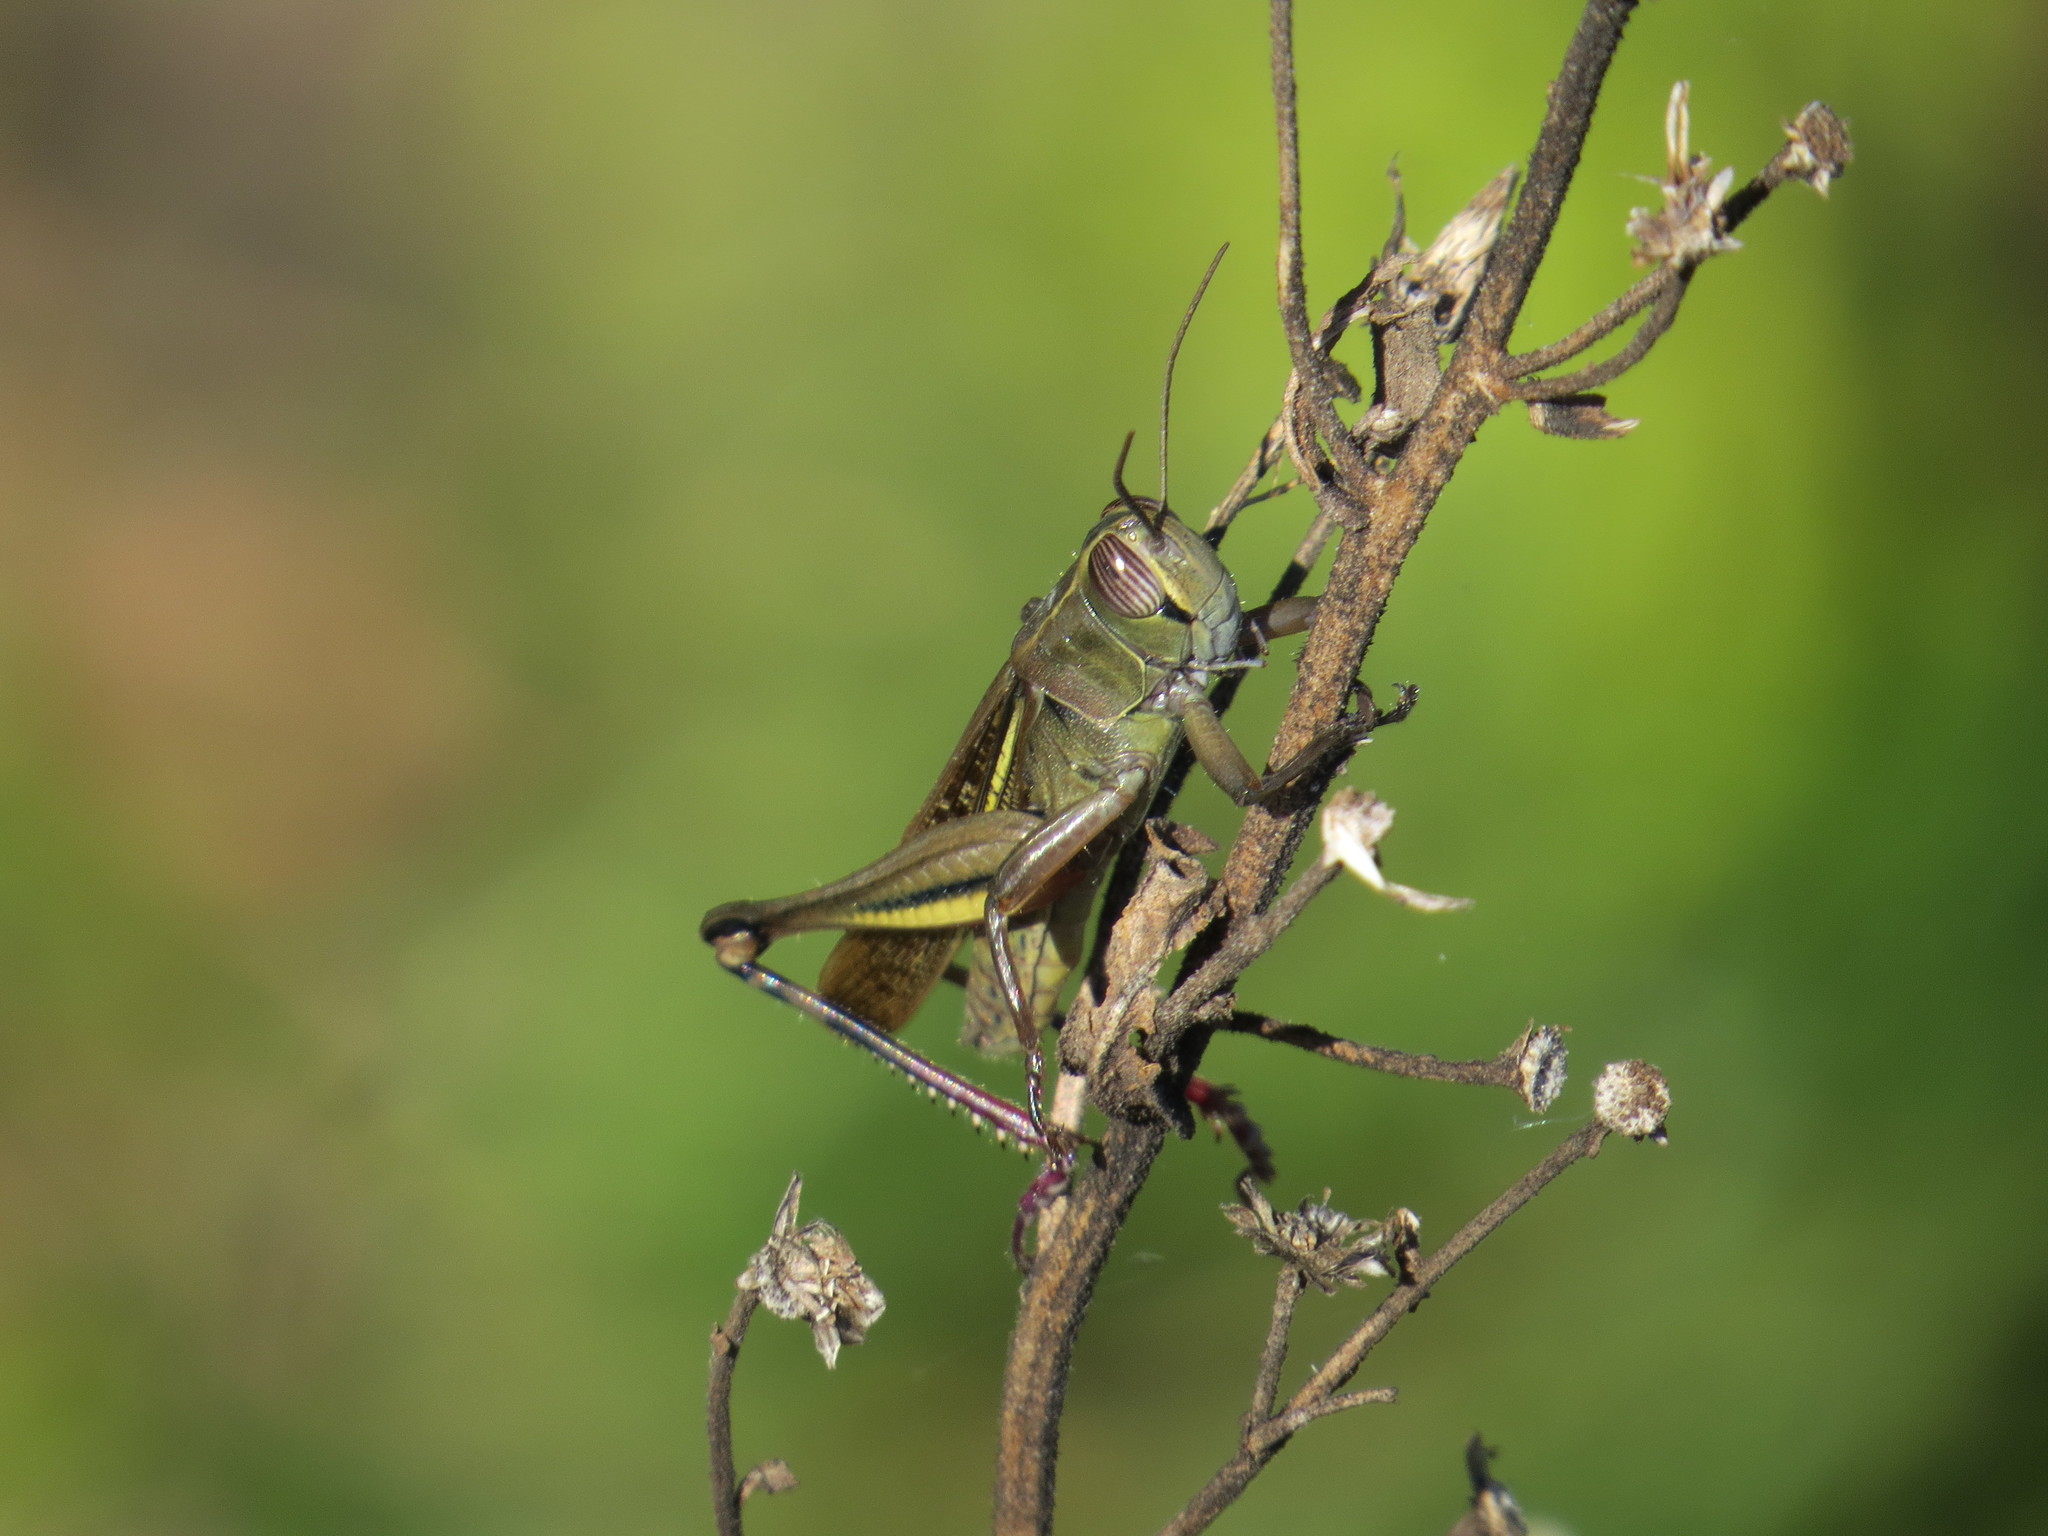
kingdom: Animalia
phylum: Arthropoda
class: Insecta
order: Orthoptera
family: Acrididae
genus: Eyprepocnemis
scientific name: Eyprepocnemis plorans
